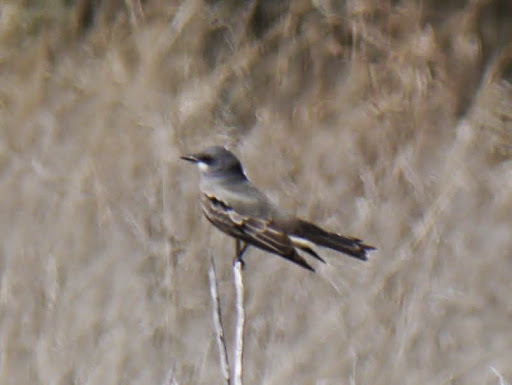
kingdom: Animalia
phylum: Chordata
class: Aves
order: Passeriformes
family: Tyrannidae
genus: Tyrannus
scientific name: Tyrannus vociferans
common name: Cassin's kingbird
